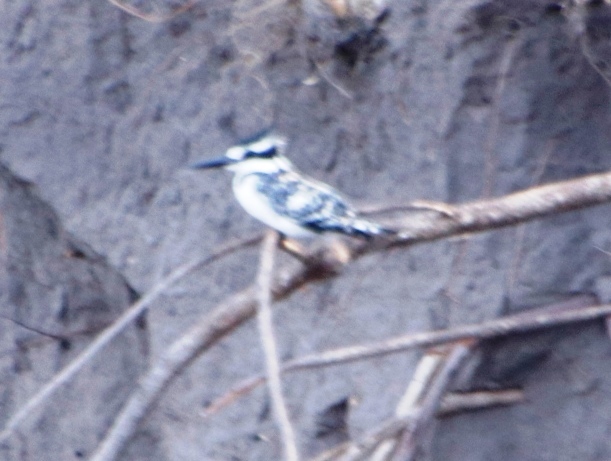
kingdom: Animalia
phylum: Chordata
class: Aves
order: Coraciiformes
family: Alcedinidae
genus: Ceryle
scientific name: Ceryle rudis
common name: Pied kingfisher
